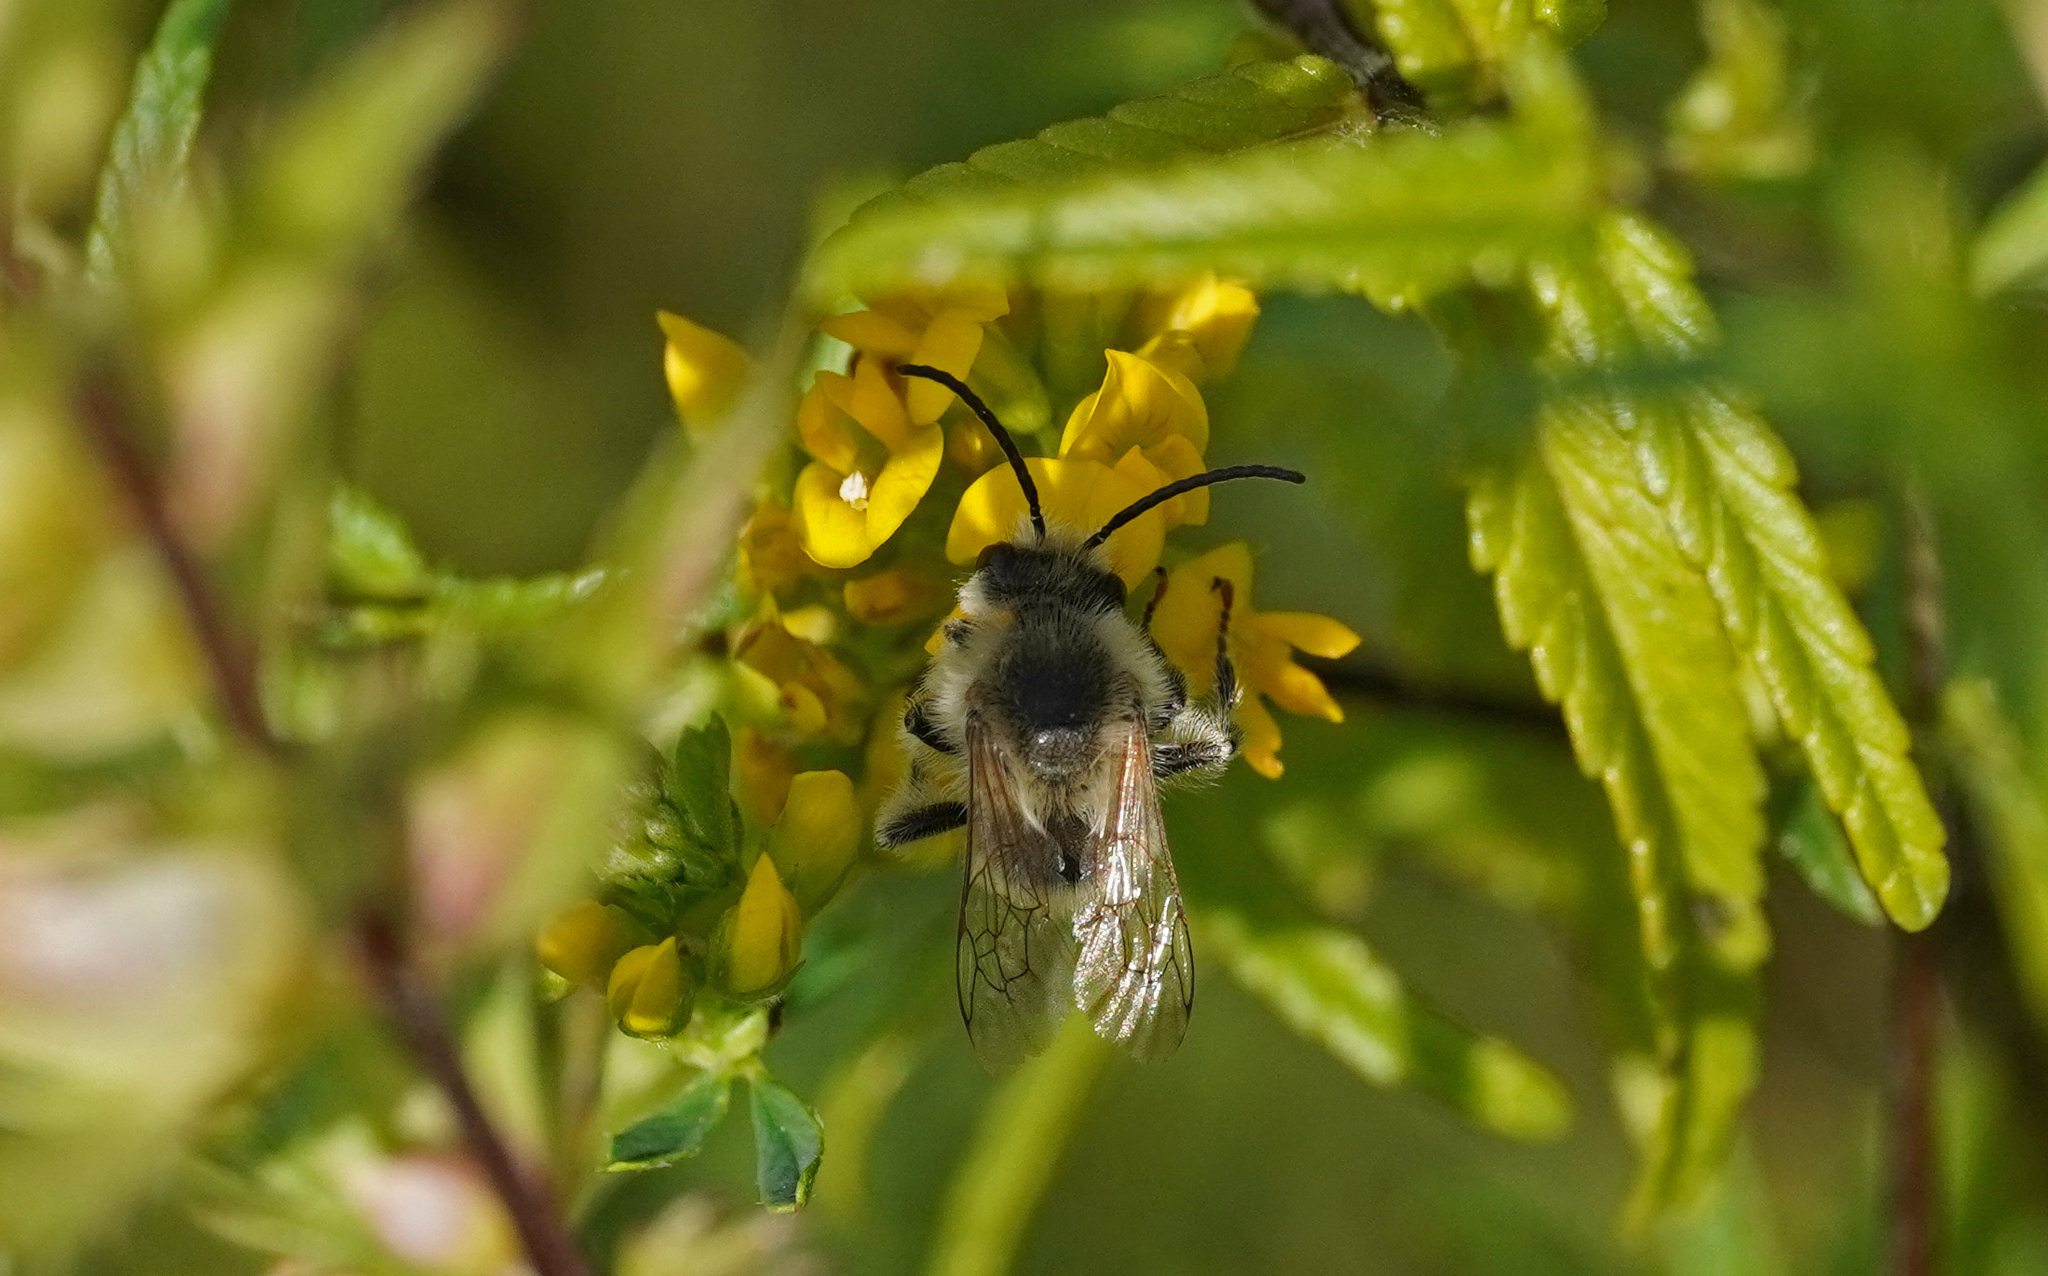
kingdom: Animalia
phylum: Arthropoda
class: Insecta
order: Hymenoptera
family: Melittidae
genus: Melitta
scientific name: Melitta leporina
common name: Clover melitta
